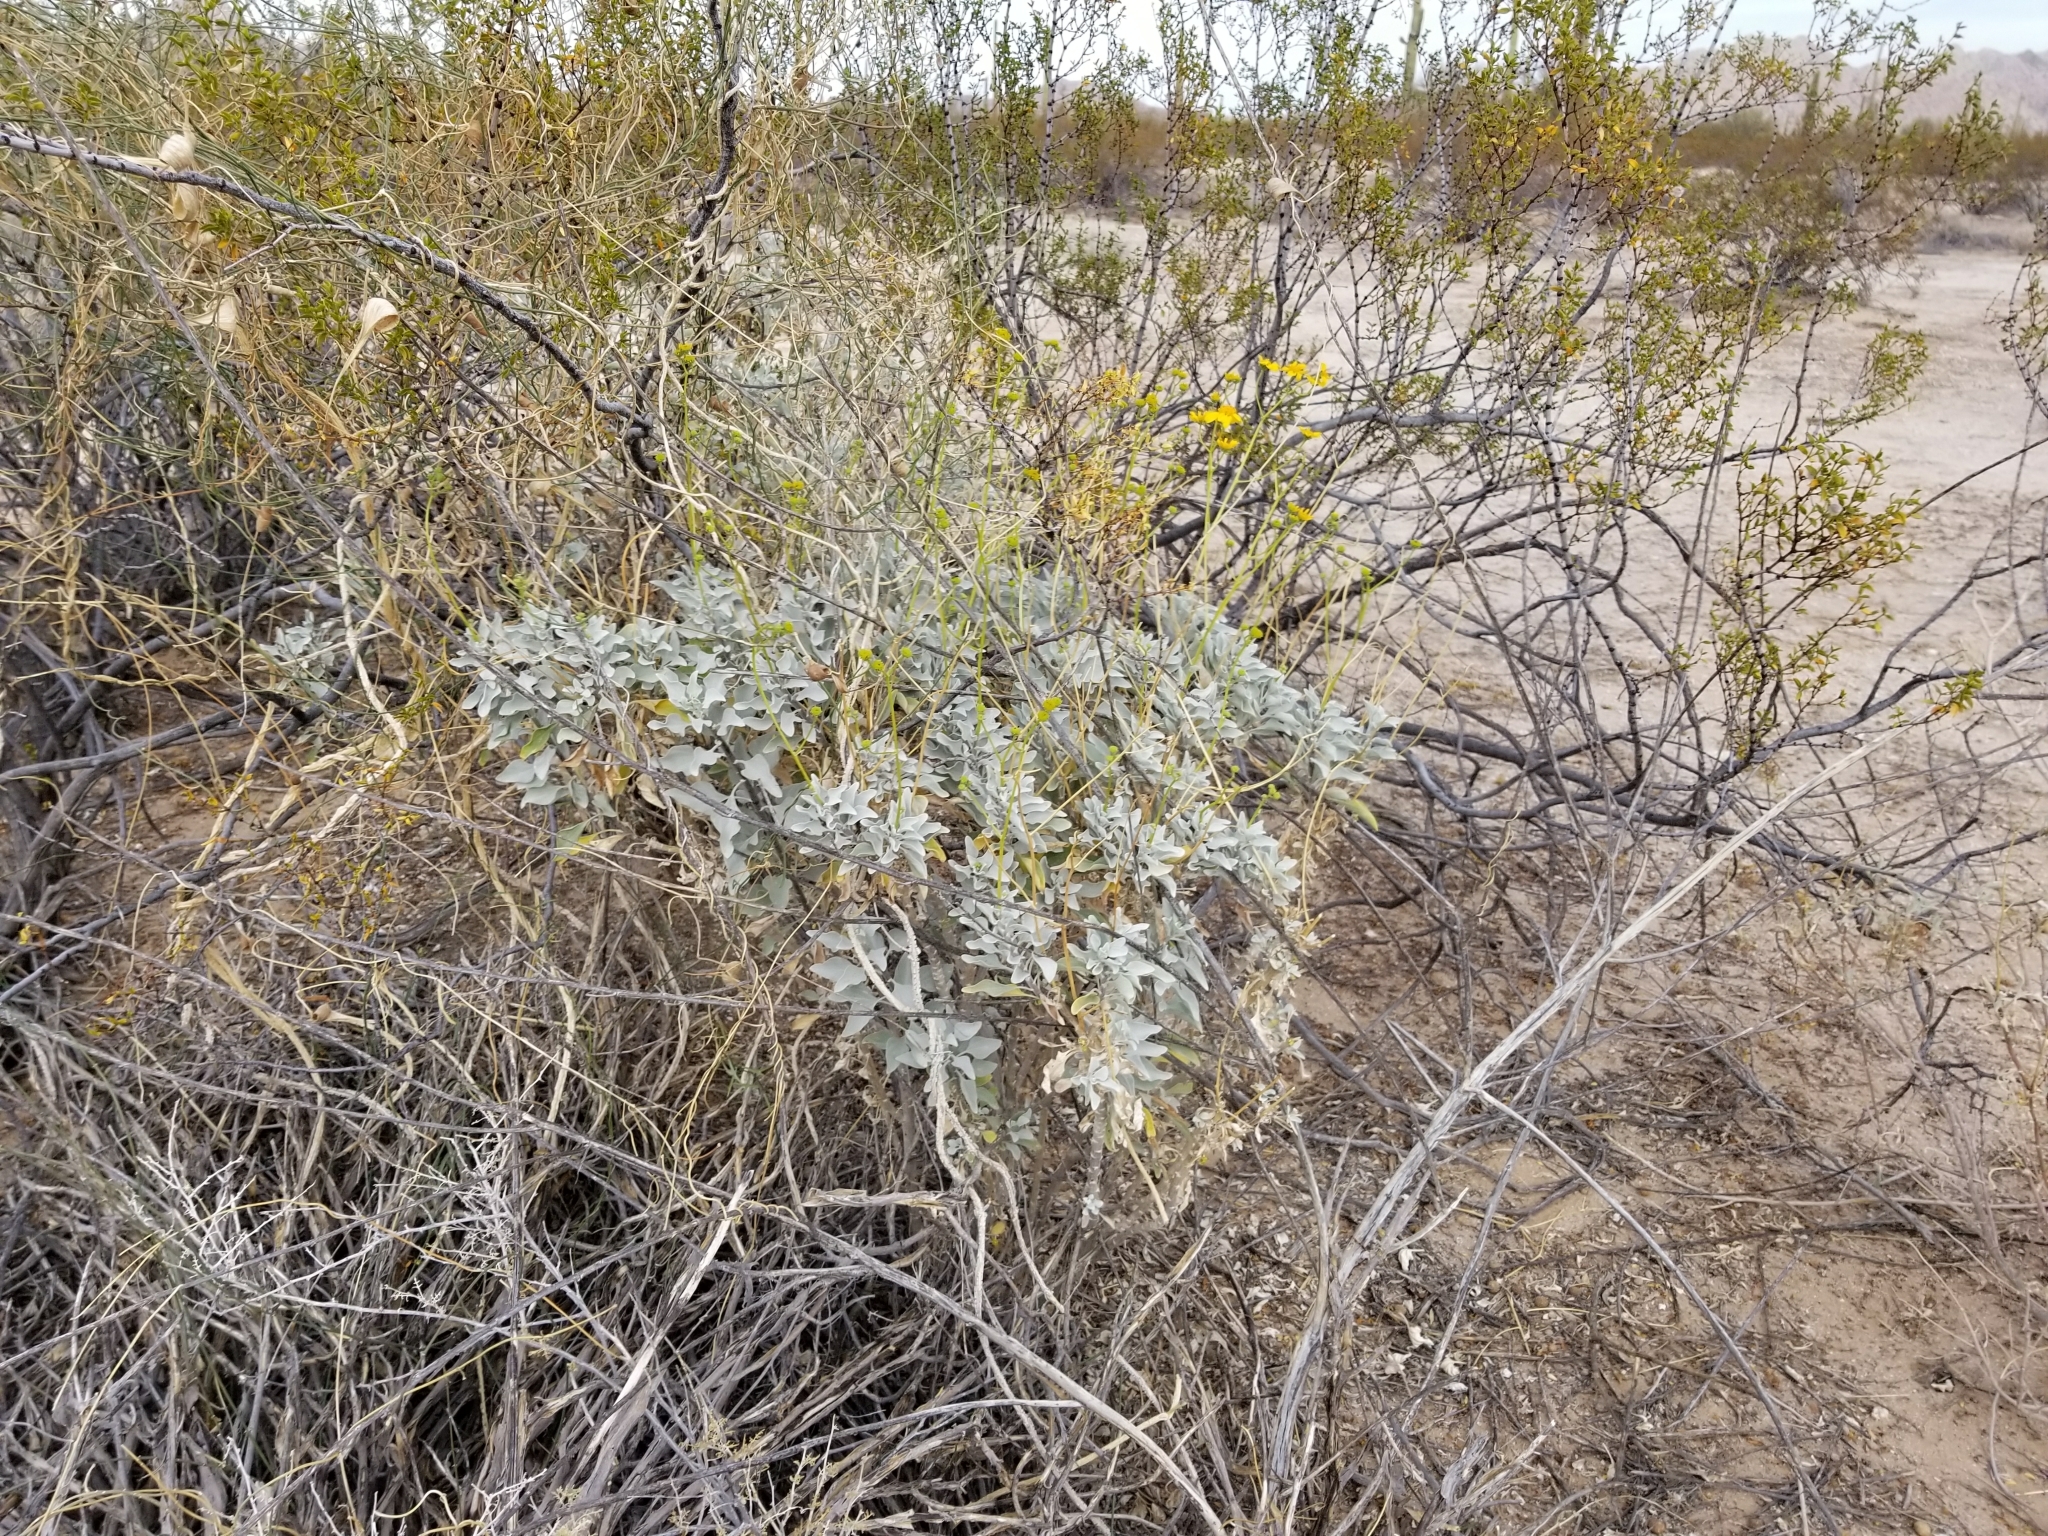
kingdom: Plantae
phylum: Tracheophyta
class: Magnoliopsida
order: Asterales
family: Asteraceae
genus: Encelia
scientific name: Encelia farinosa
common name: Brittlebush
